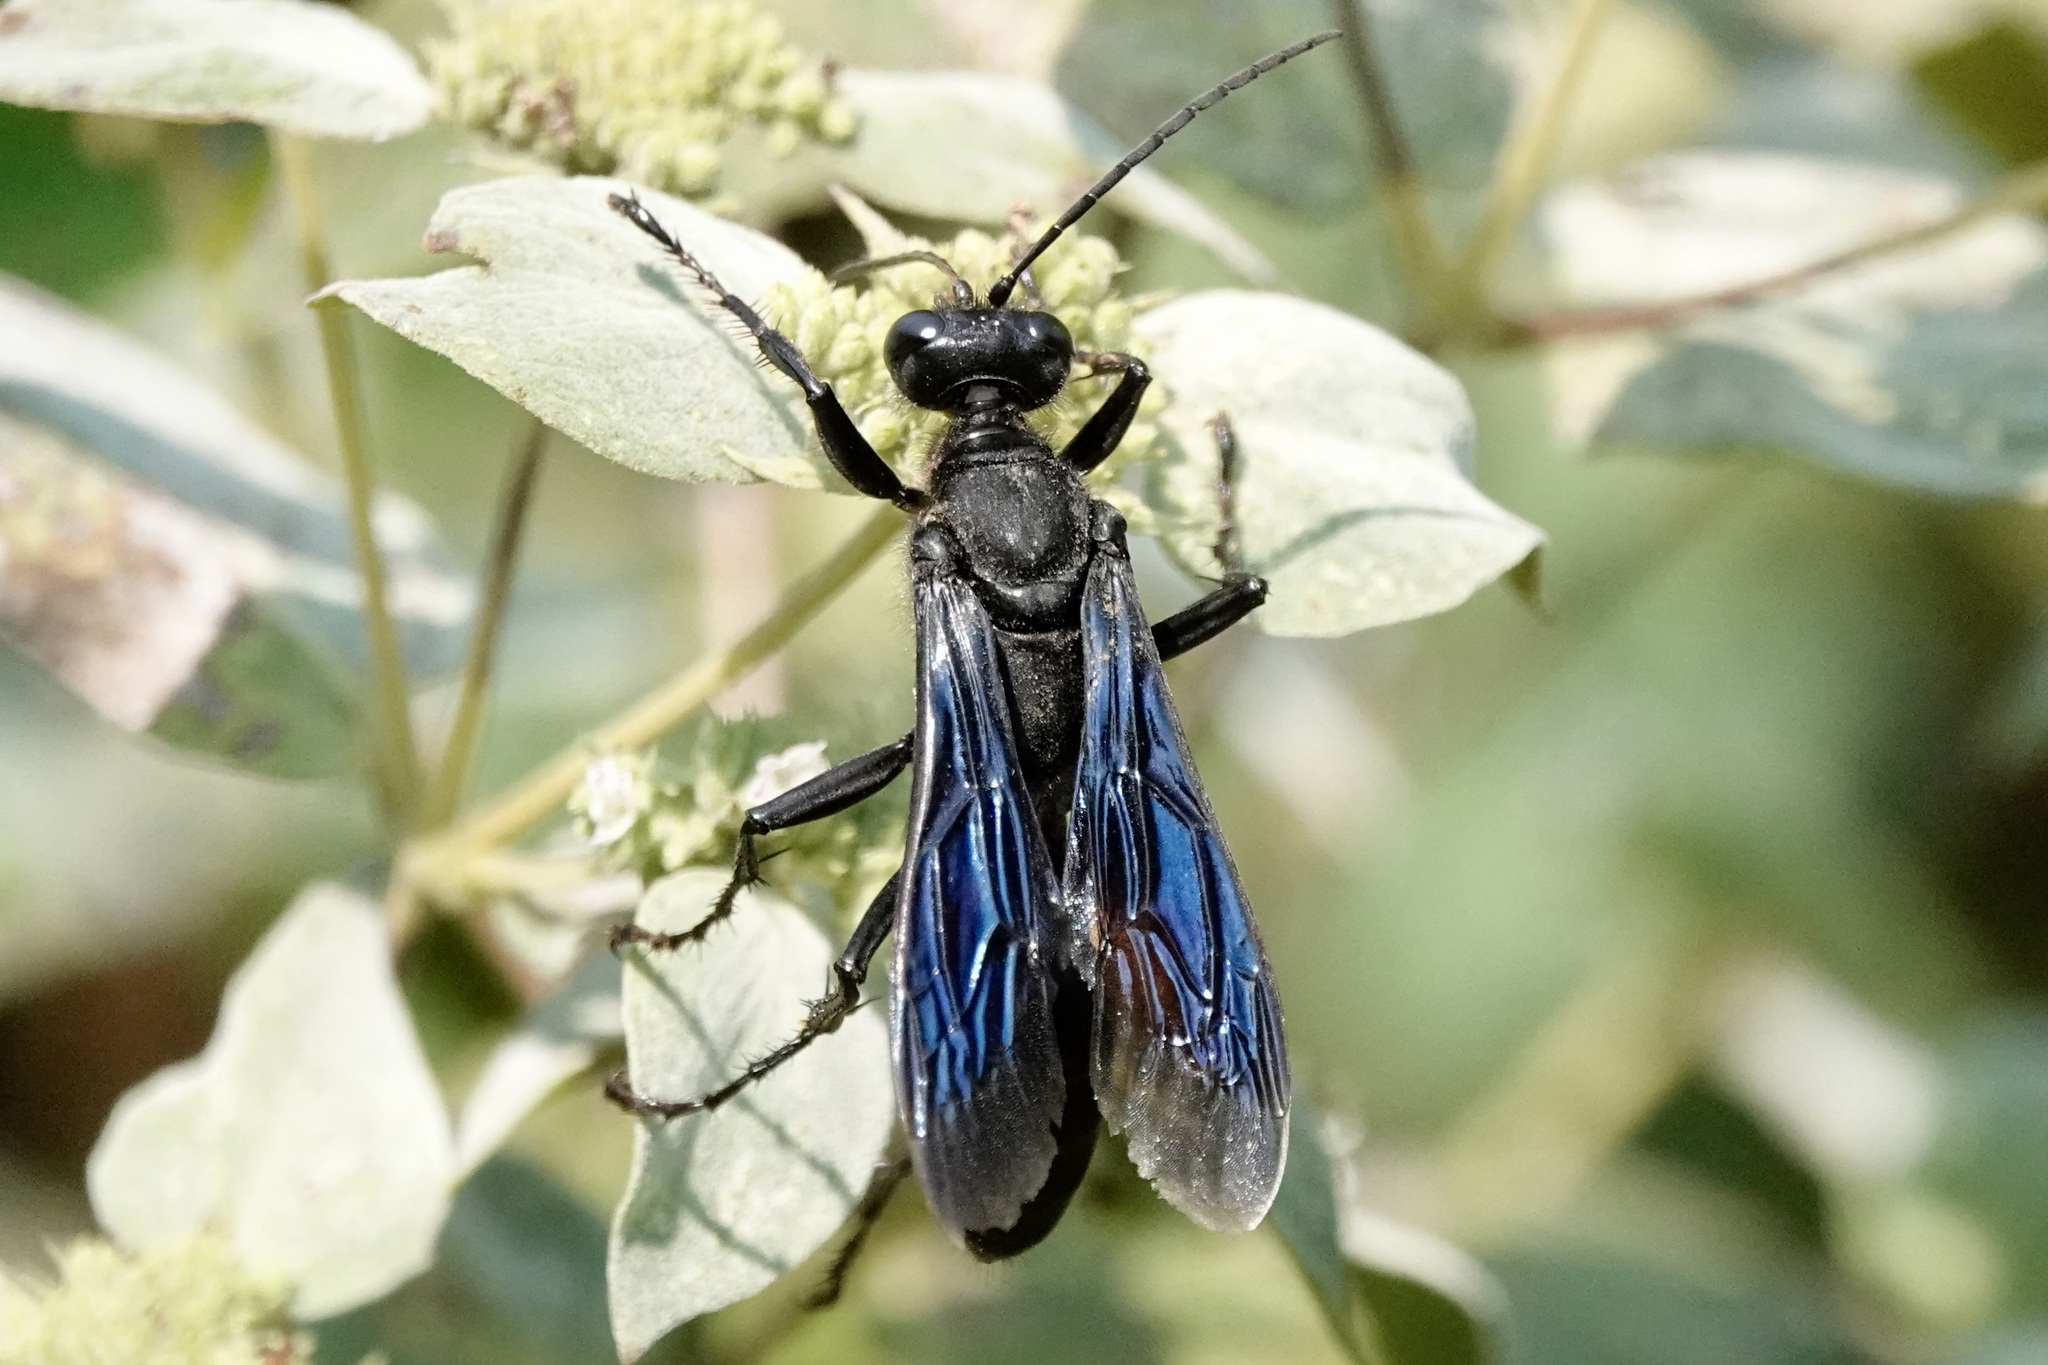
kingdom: Animalia
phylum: Arthropoda
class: Insecta
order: Hymenoptera
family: Sphecidae
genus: Sphex
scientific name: Sphex pensylvanicus
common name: Great black digger wasp
